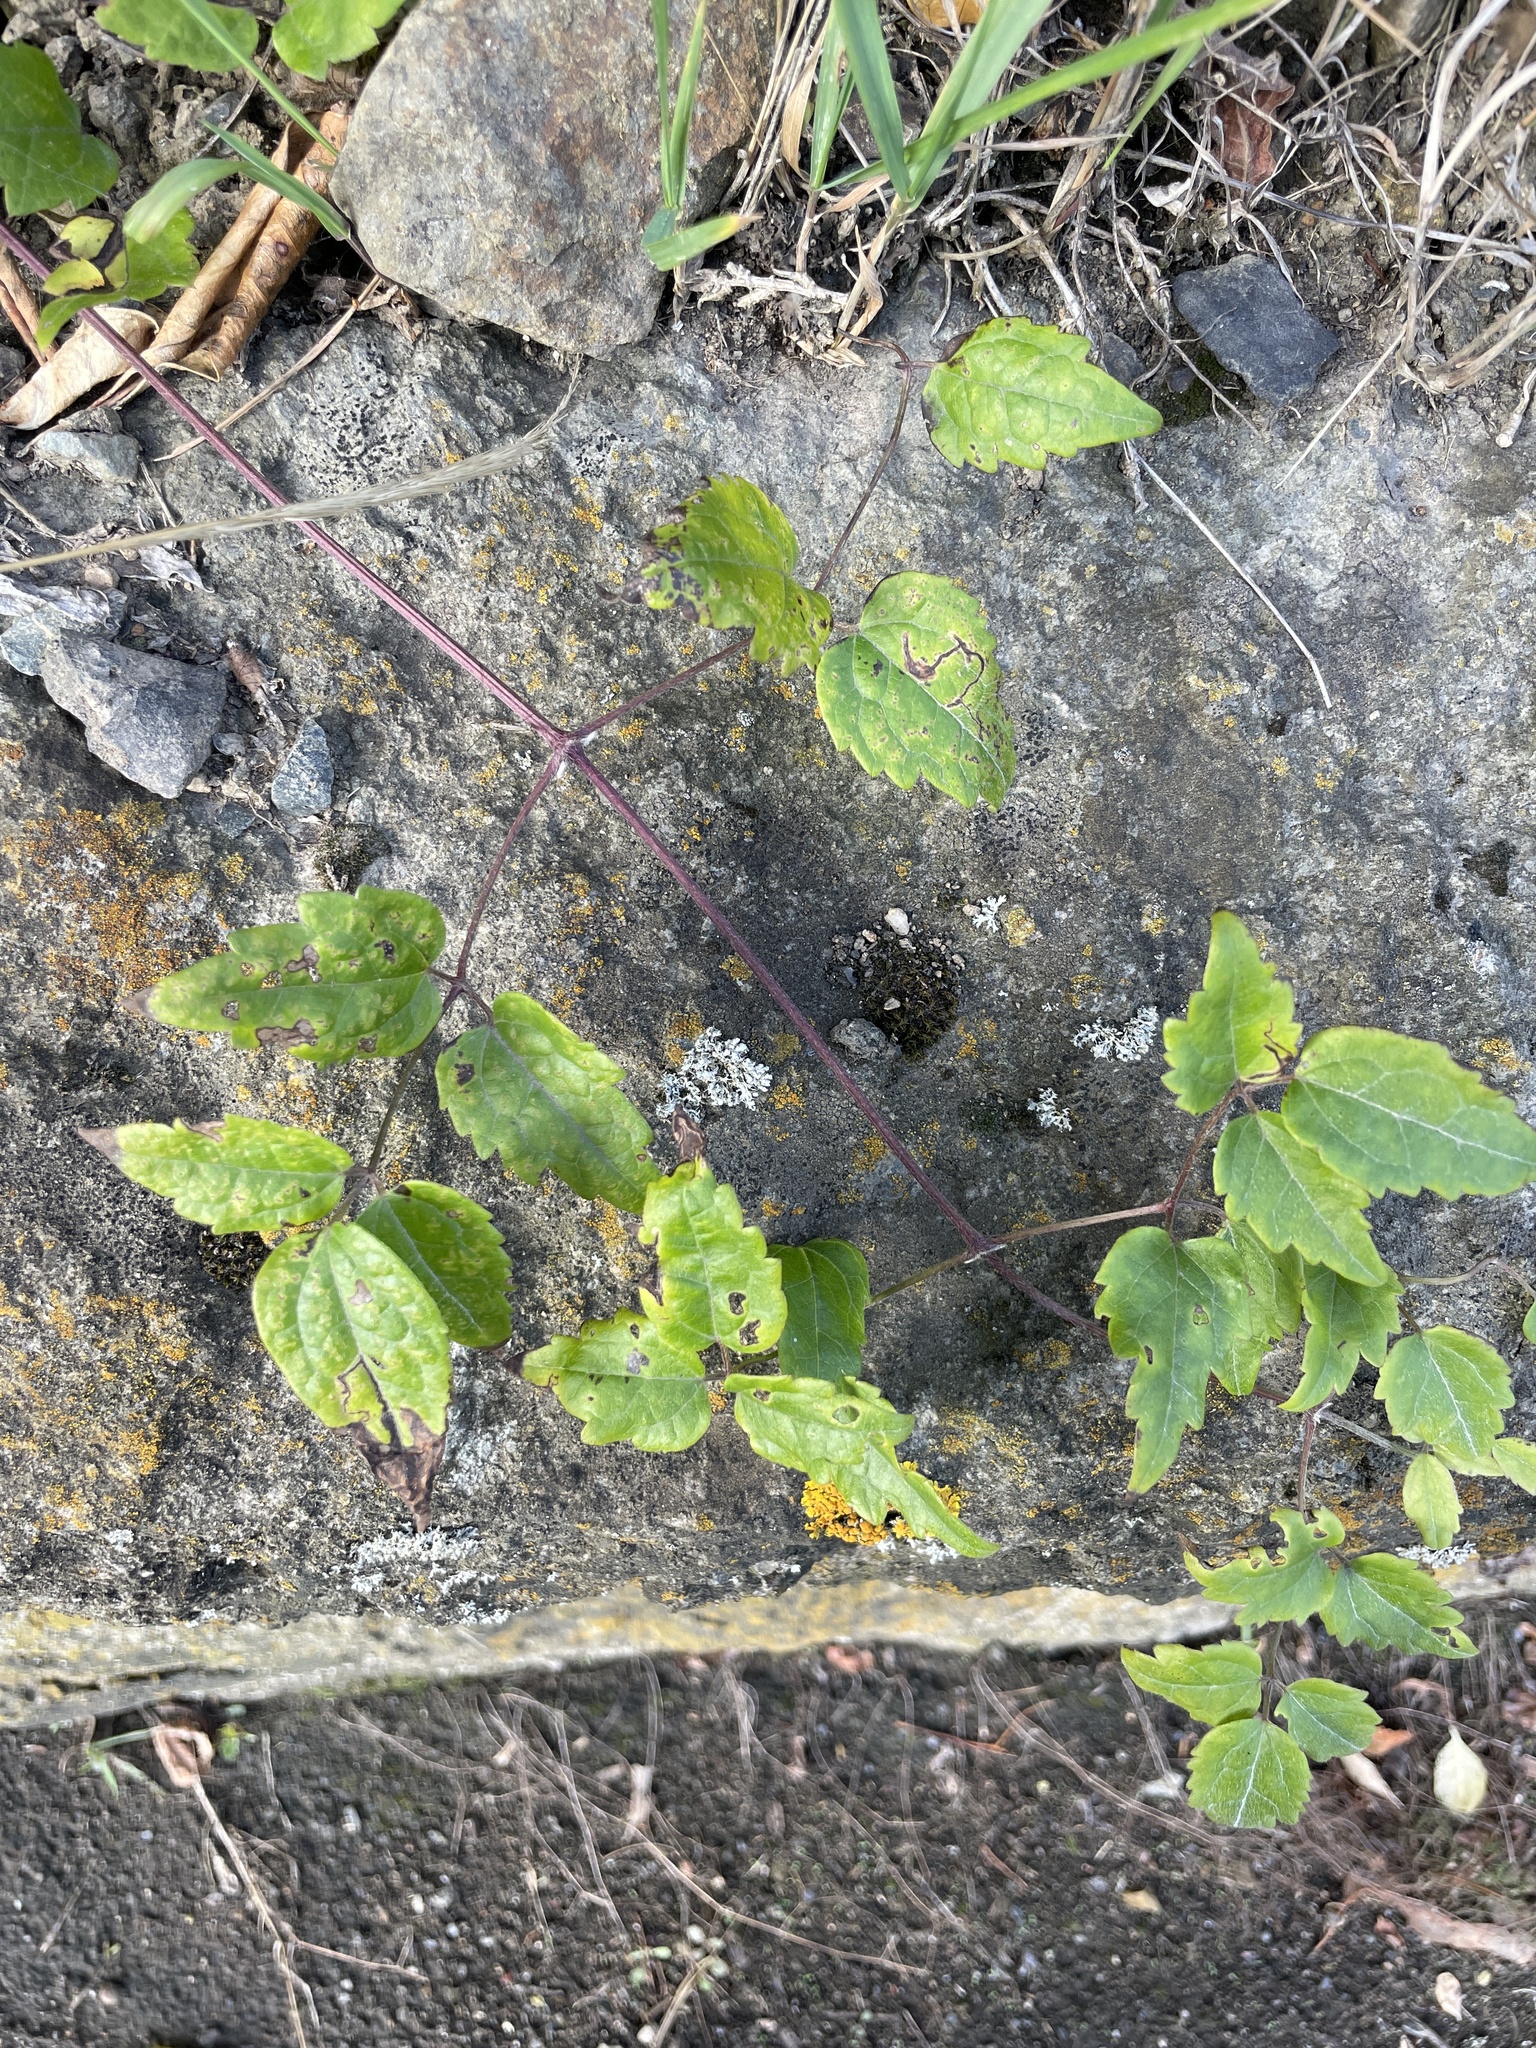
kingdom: Plantae
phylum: Tracheophyta
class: Magnoliopsida
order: Ranunculales
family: Ranunculaceae
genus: Clematis
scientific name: Clematis vitalba
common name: Evergreen clematis
